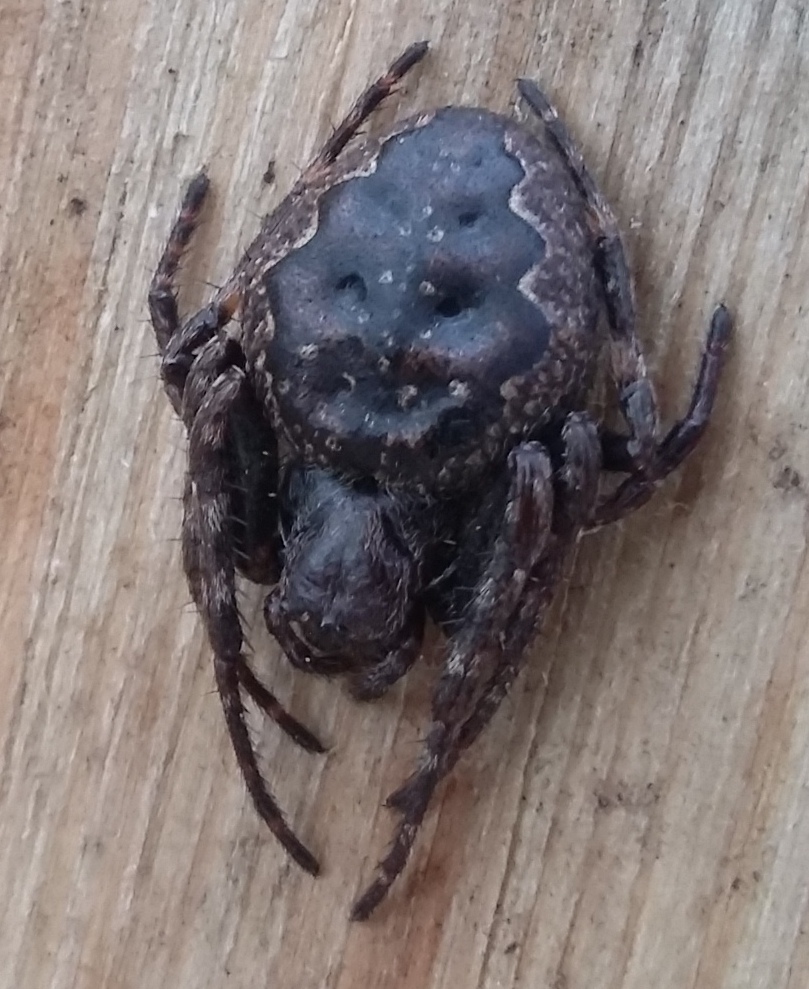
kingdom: Animalia
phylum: Arthropoda
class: Arachnida
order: Araneae
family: Araneidae
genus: Nuctenea
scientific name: Nuctenea umbratica
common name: Toad spider
